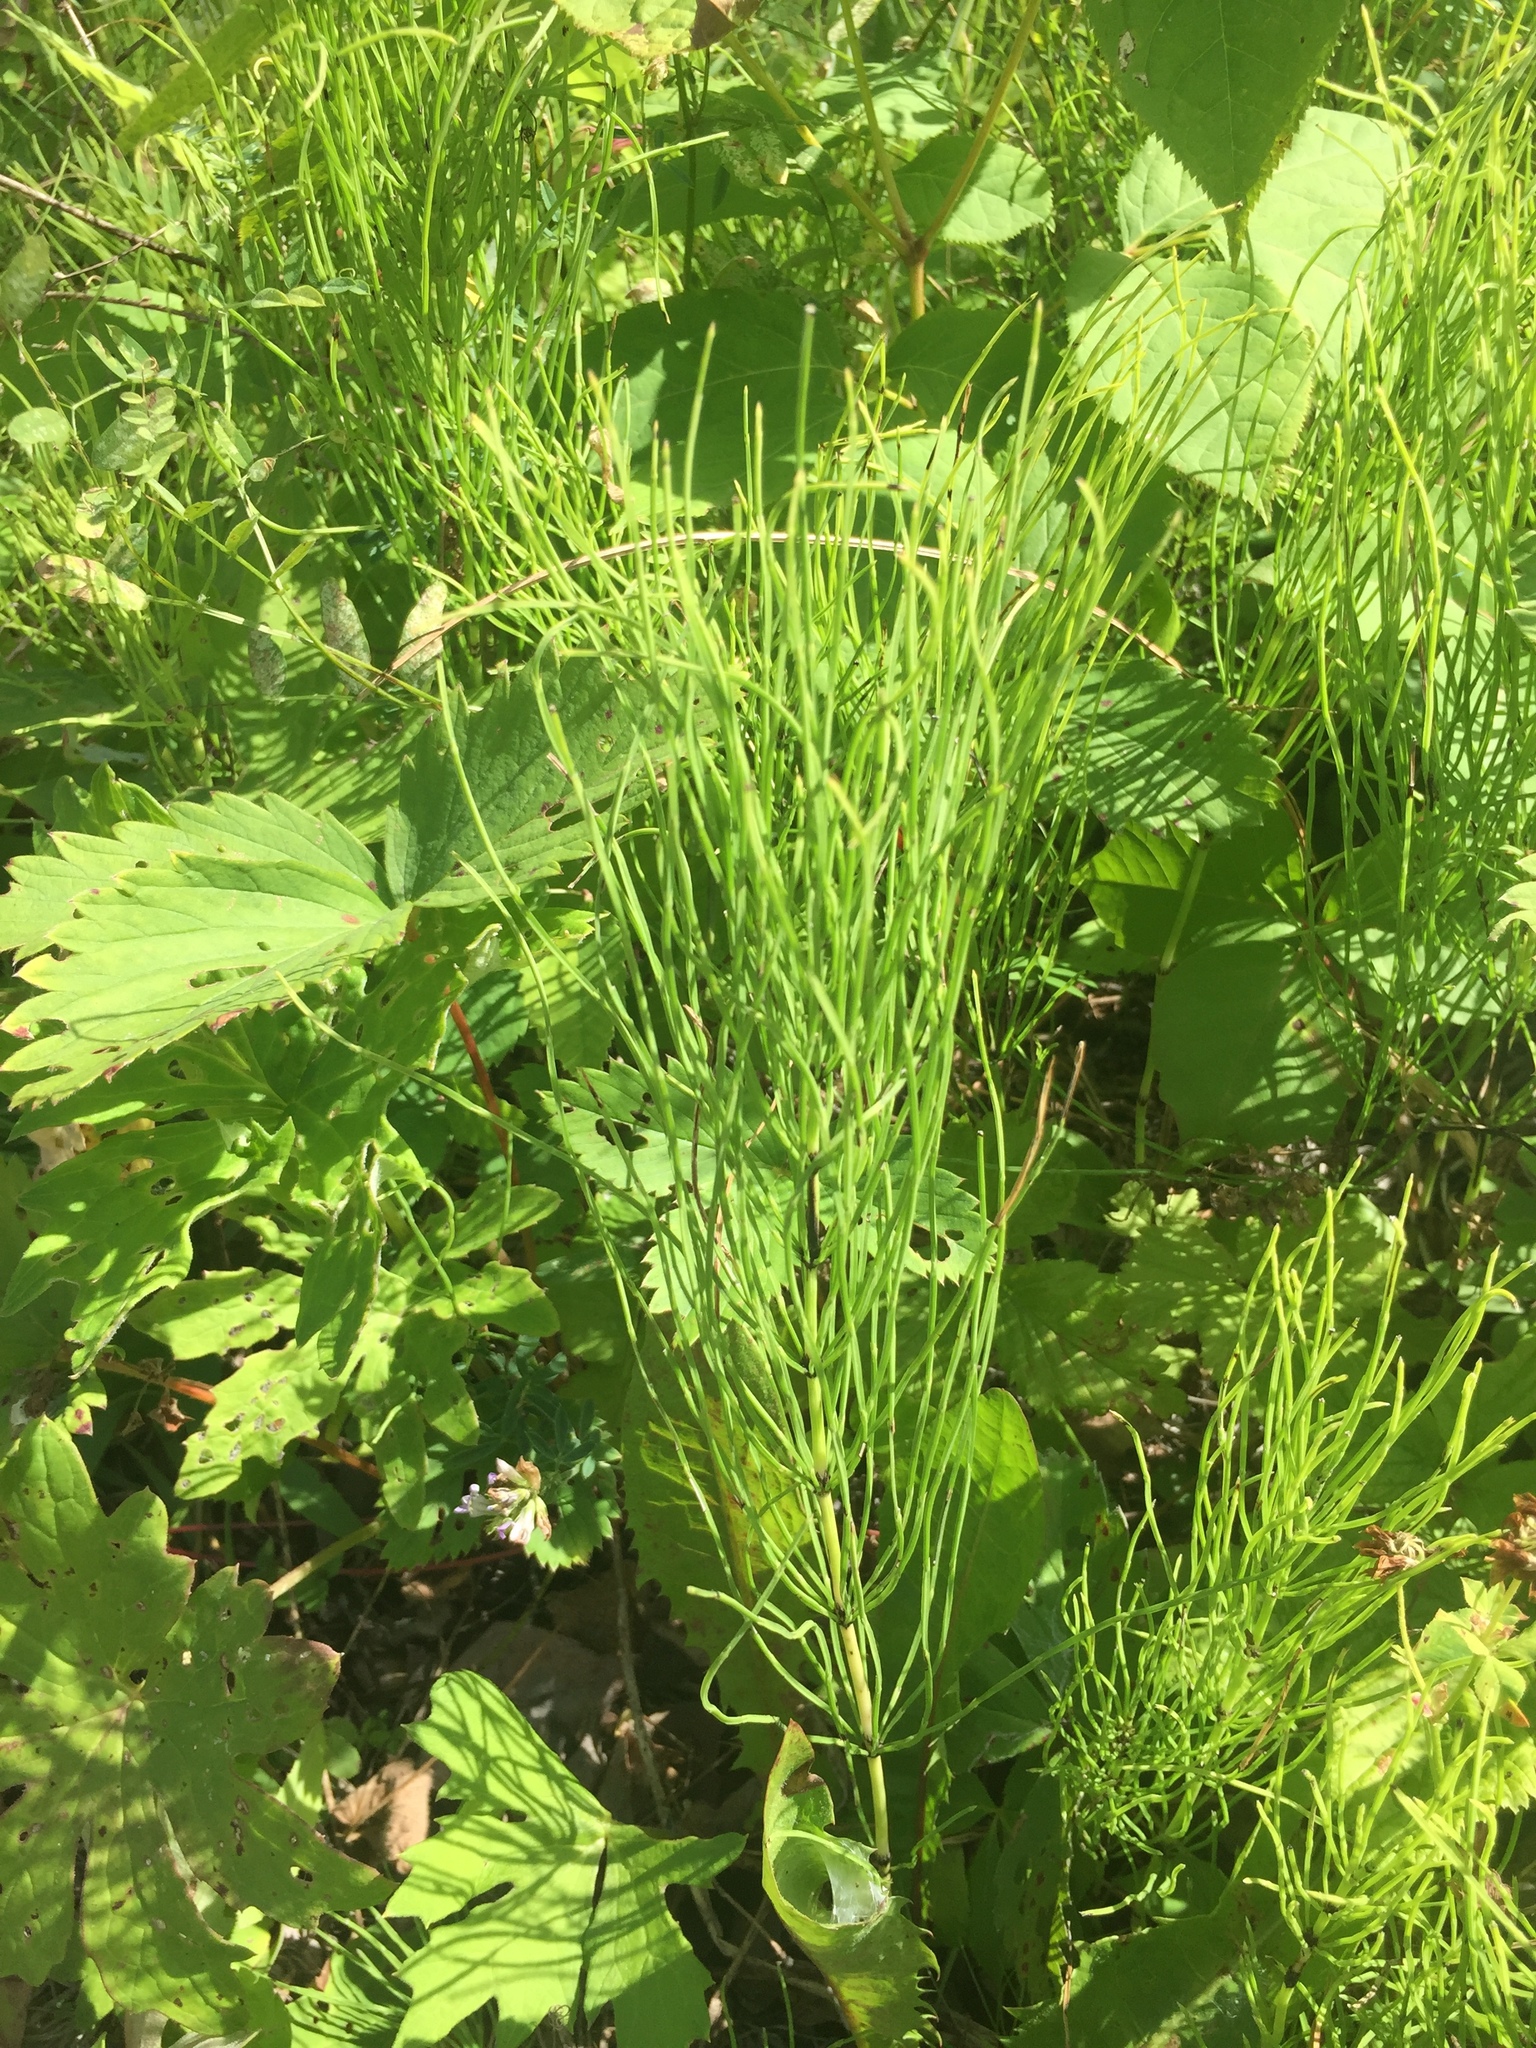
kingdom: Plantae
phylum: Tracheophyta
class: Polypodiopsida
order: Equisetales
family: Equisetaceae
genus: Equisetum
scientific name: Equisetum arvense
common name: Field horsetail
